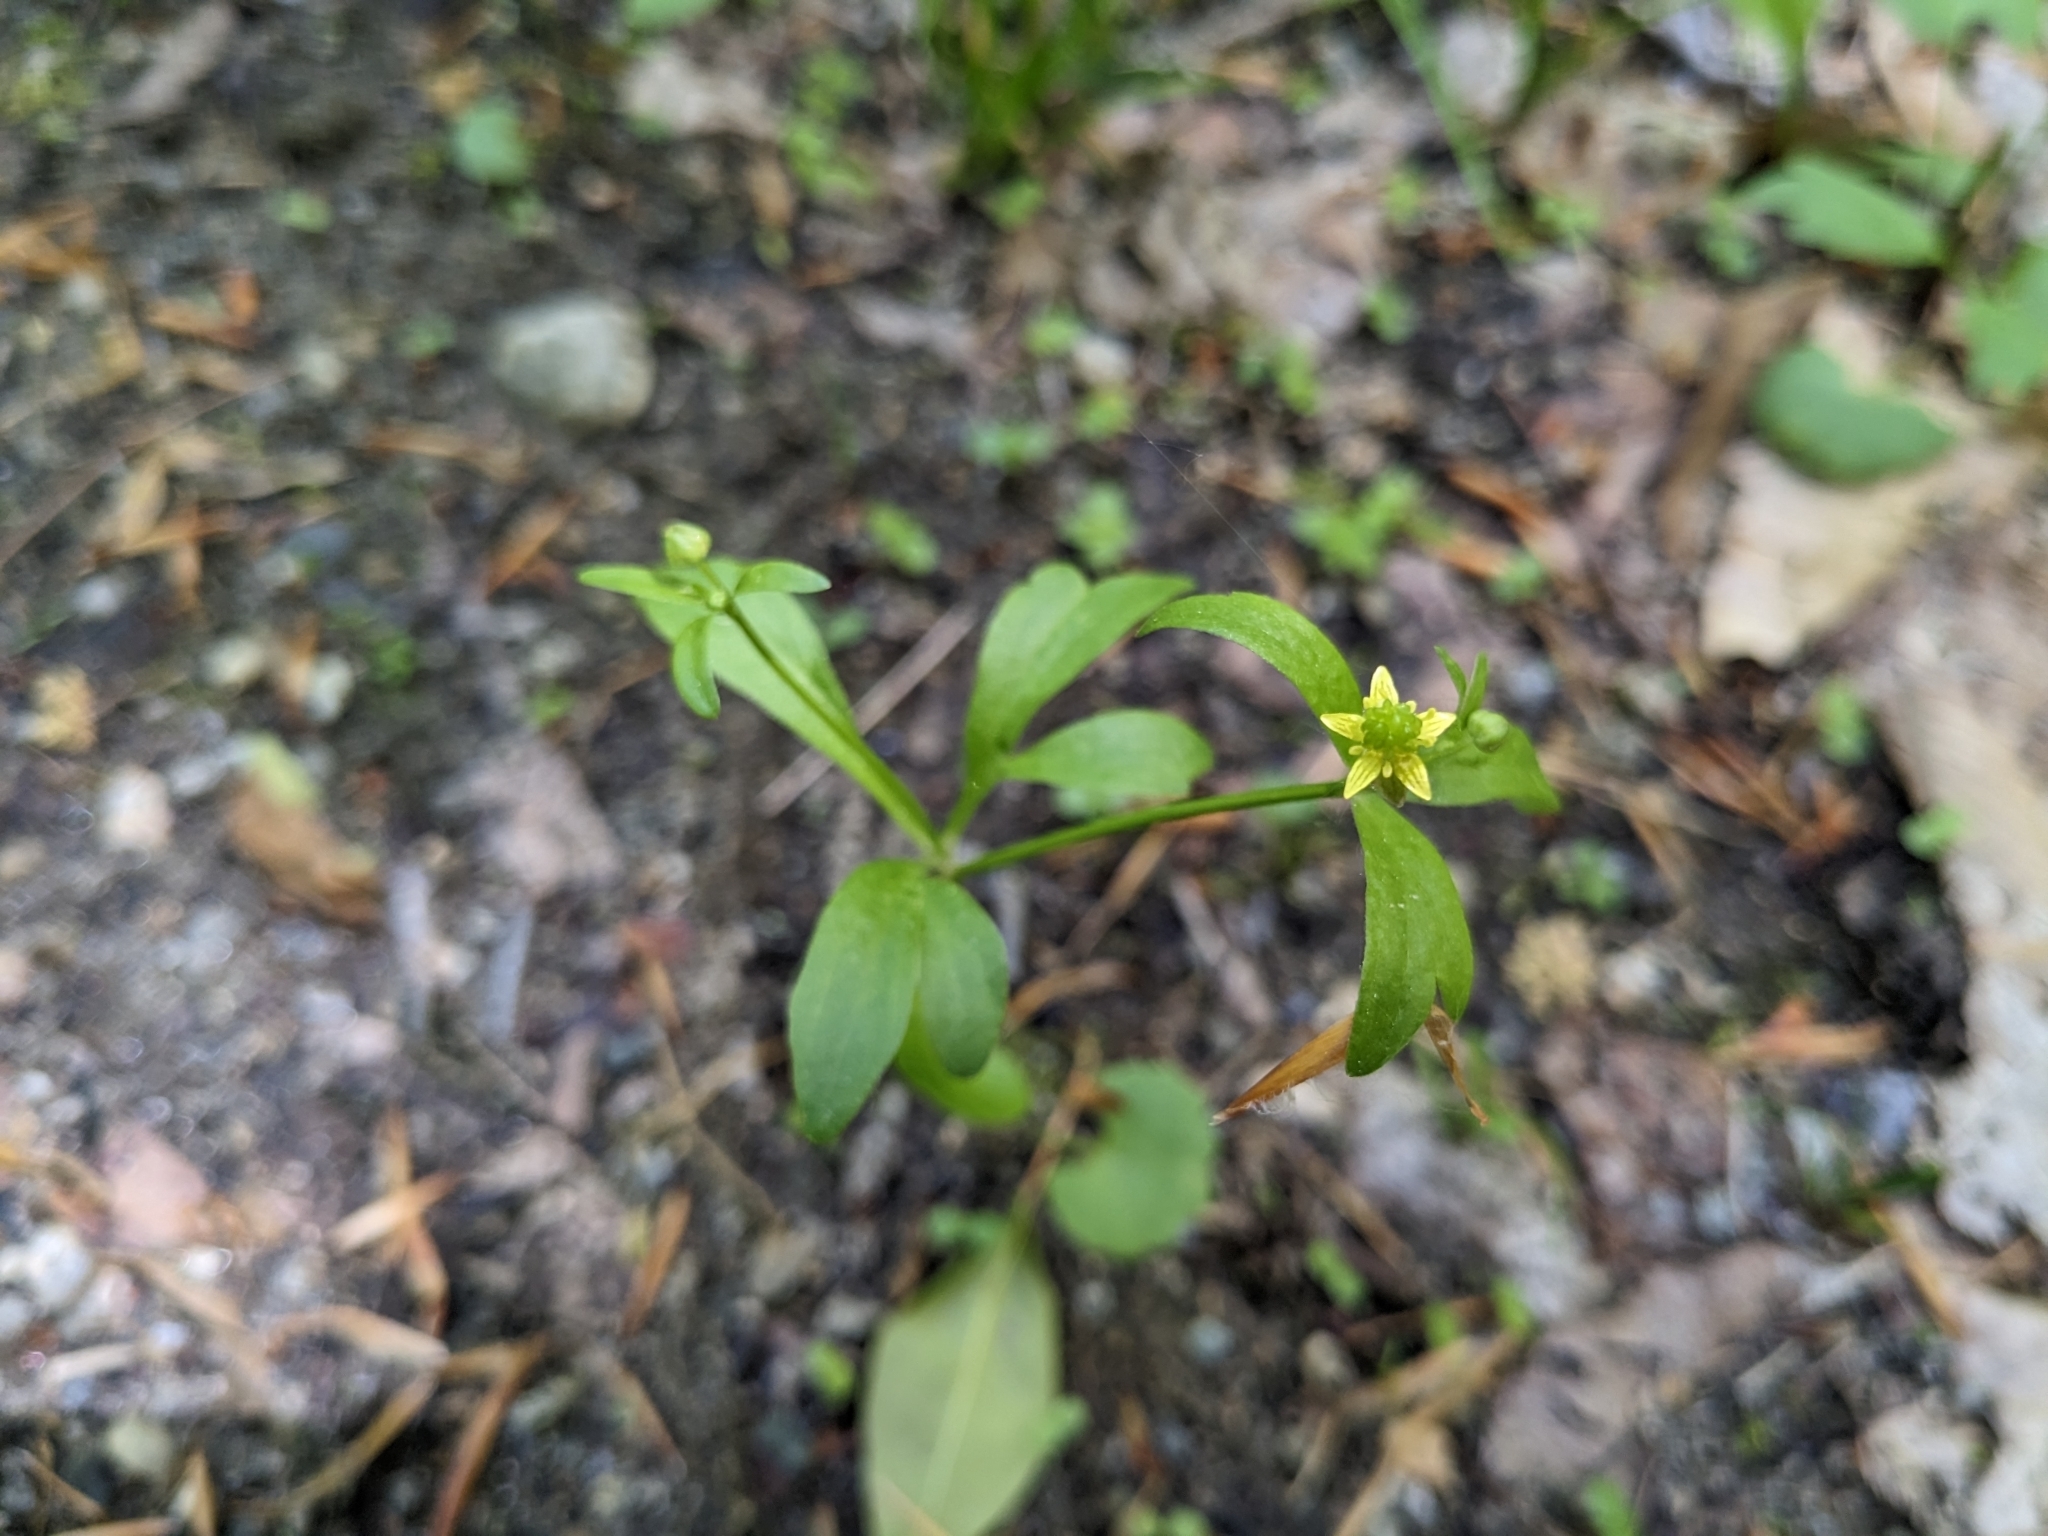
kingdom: Plantae
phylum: Tracheophyta
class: Magnoliopsida
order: Ranunculales
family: Ranunculaceae
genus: Ranunculus
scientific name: Ranunculus abortivus
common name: Early wood buttercup
